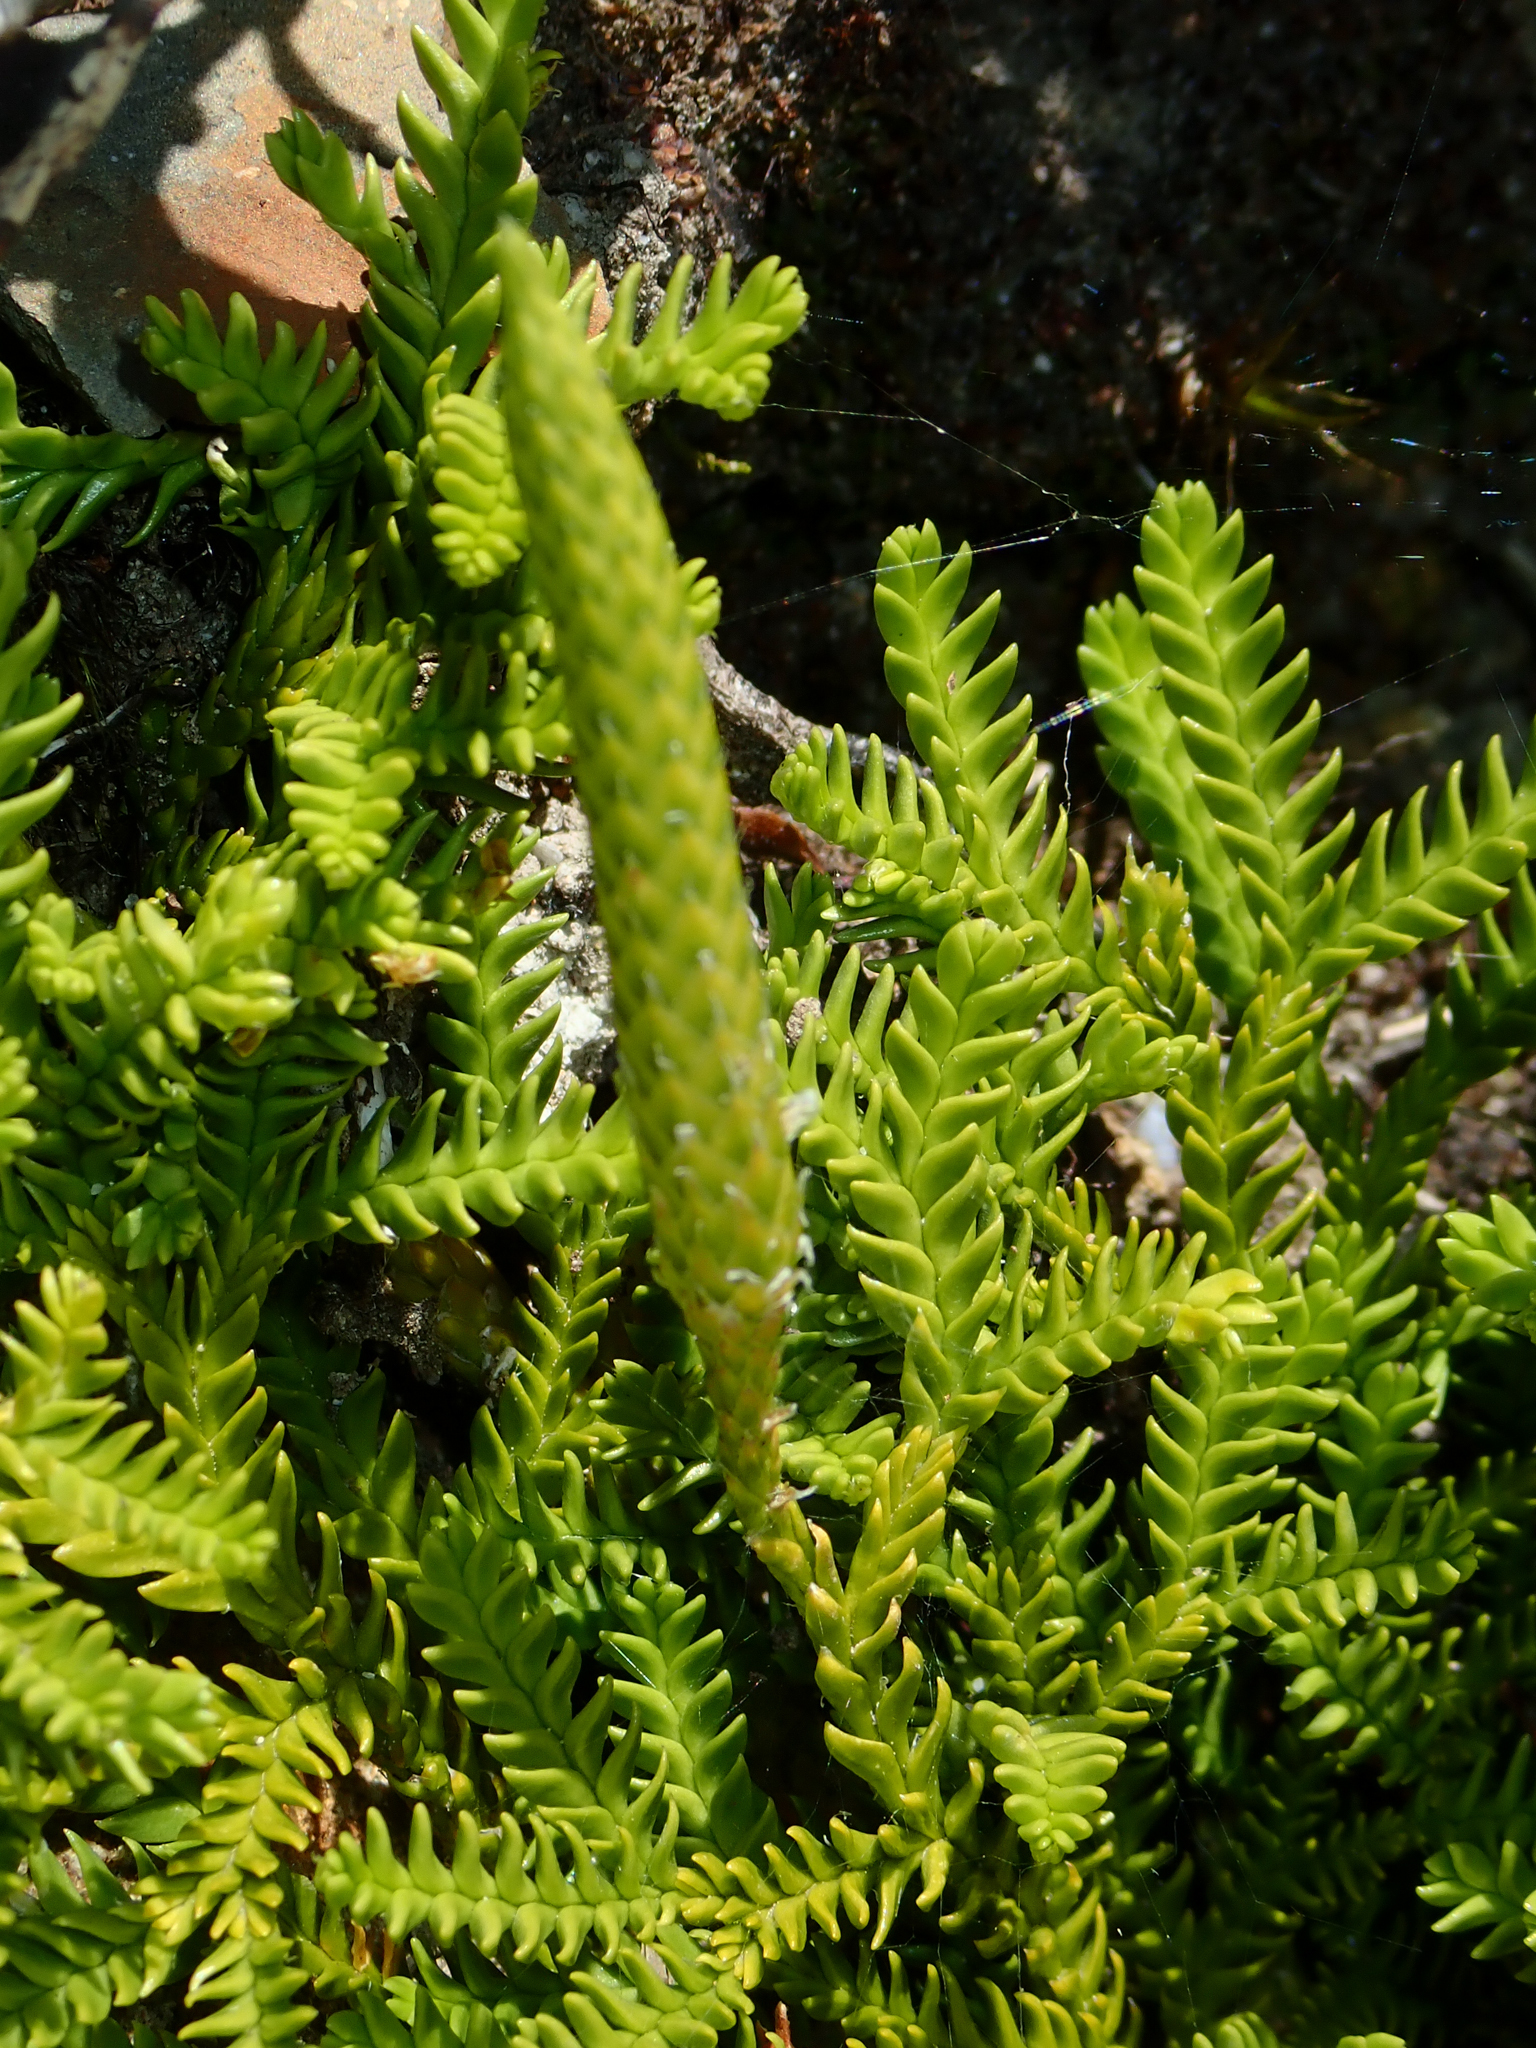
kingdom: Plantae
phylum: Tracheophyta
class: Lycopodiopsida
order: Lycopodiales
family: Lycopodiaceae
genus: Diphasium
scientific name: Diphasium scariosum
